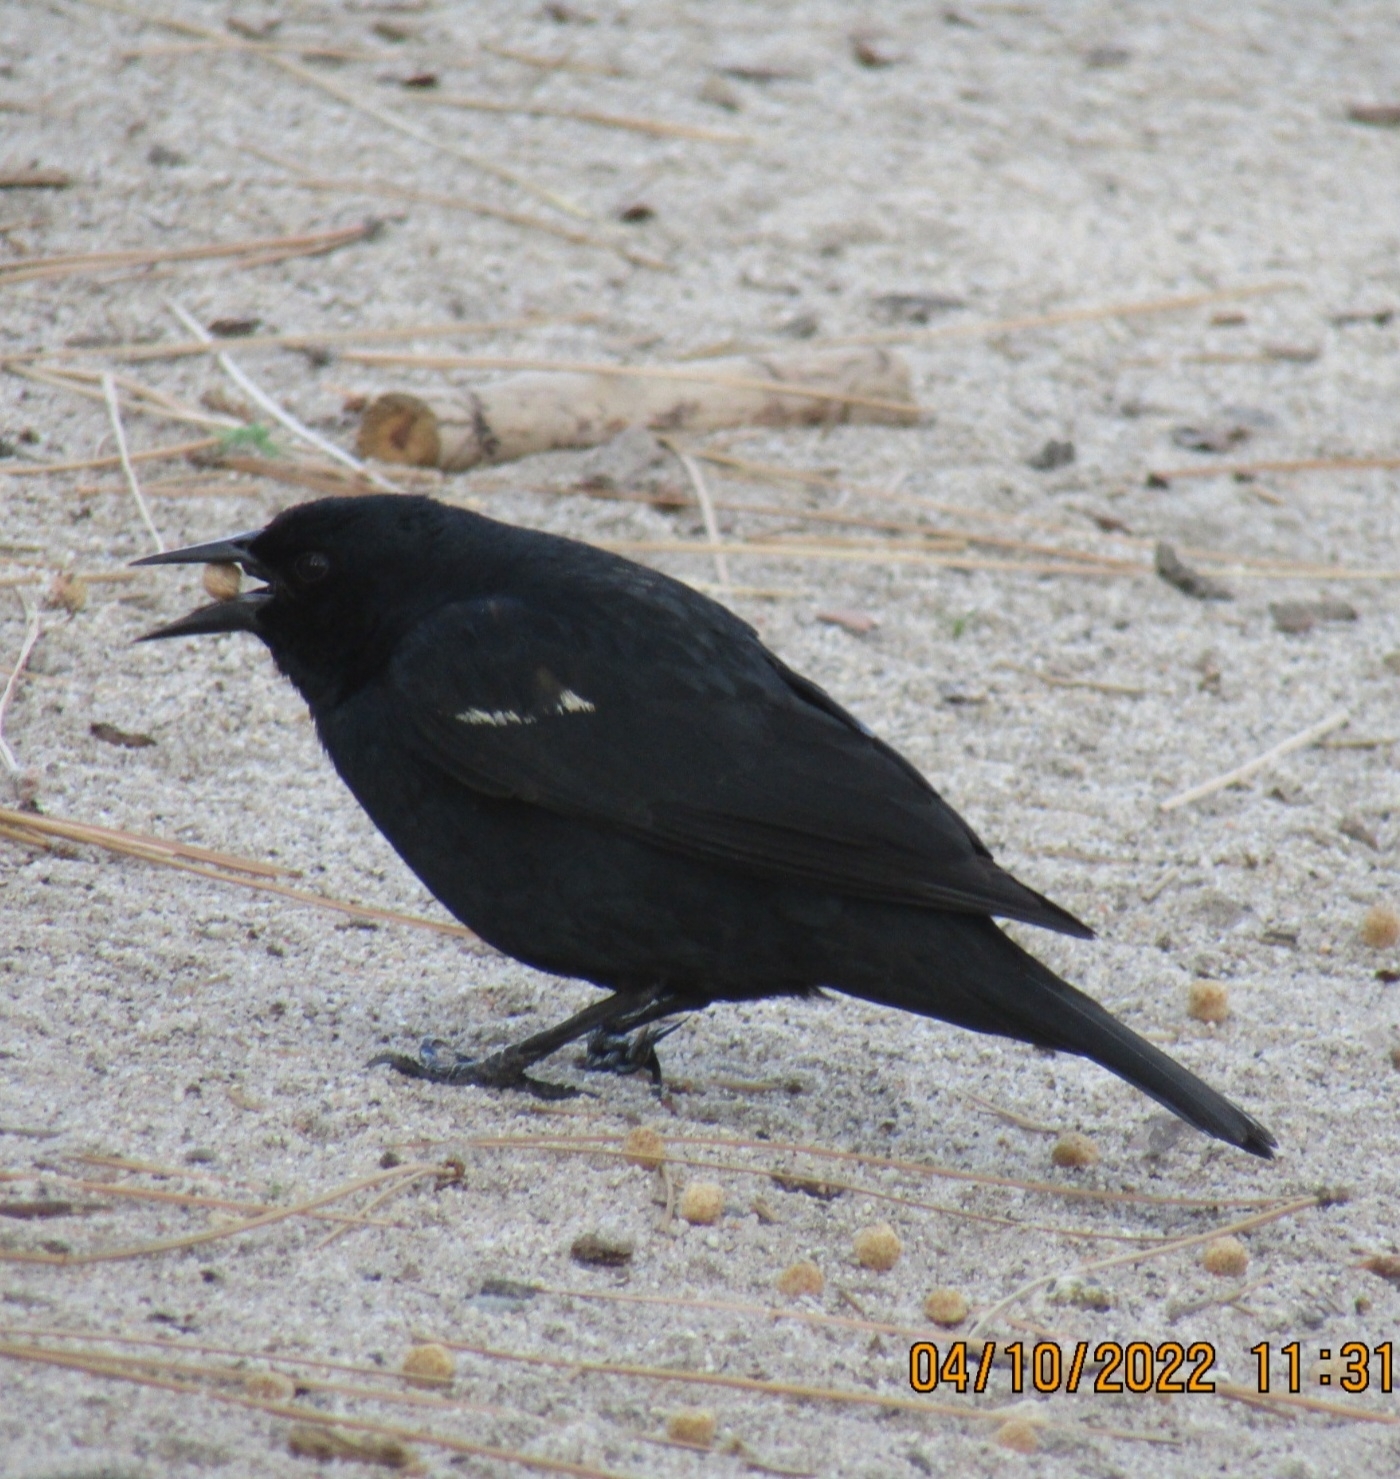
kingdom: Animalia
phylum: Chordata
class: Aves
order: Passeriformes
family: Icteridae
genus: Agelaius
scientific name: Agelaius tricolor
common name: Tricolored blackbird
